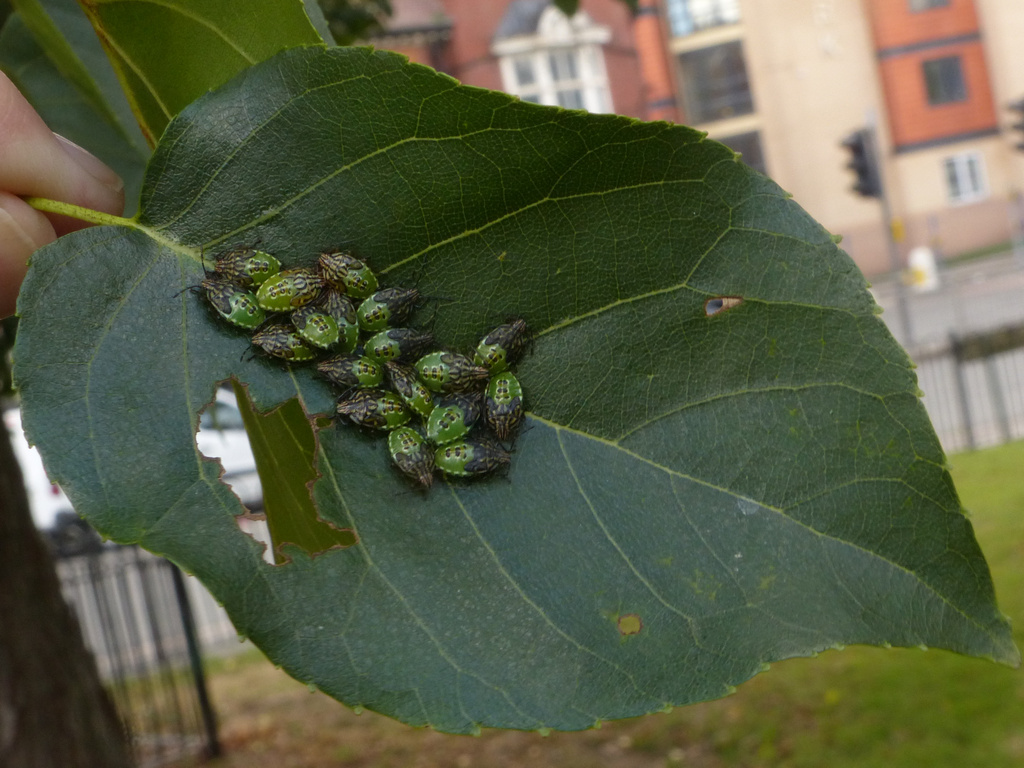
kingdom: Animalia
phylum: Arthropoda
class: Insecta
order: Hemiptera
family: Acanthosomatidae
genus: Elasmucha
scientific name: Elasmucha grisea
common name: Parent bug
